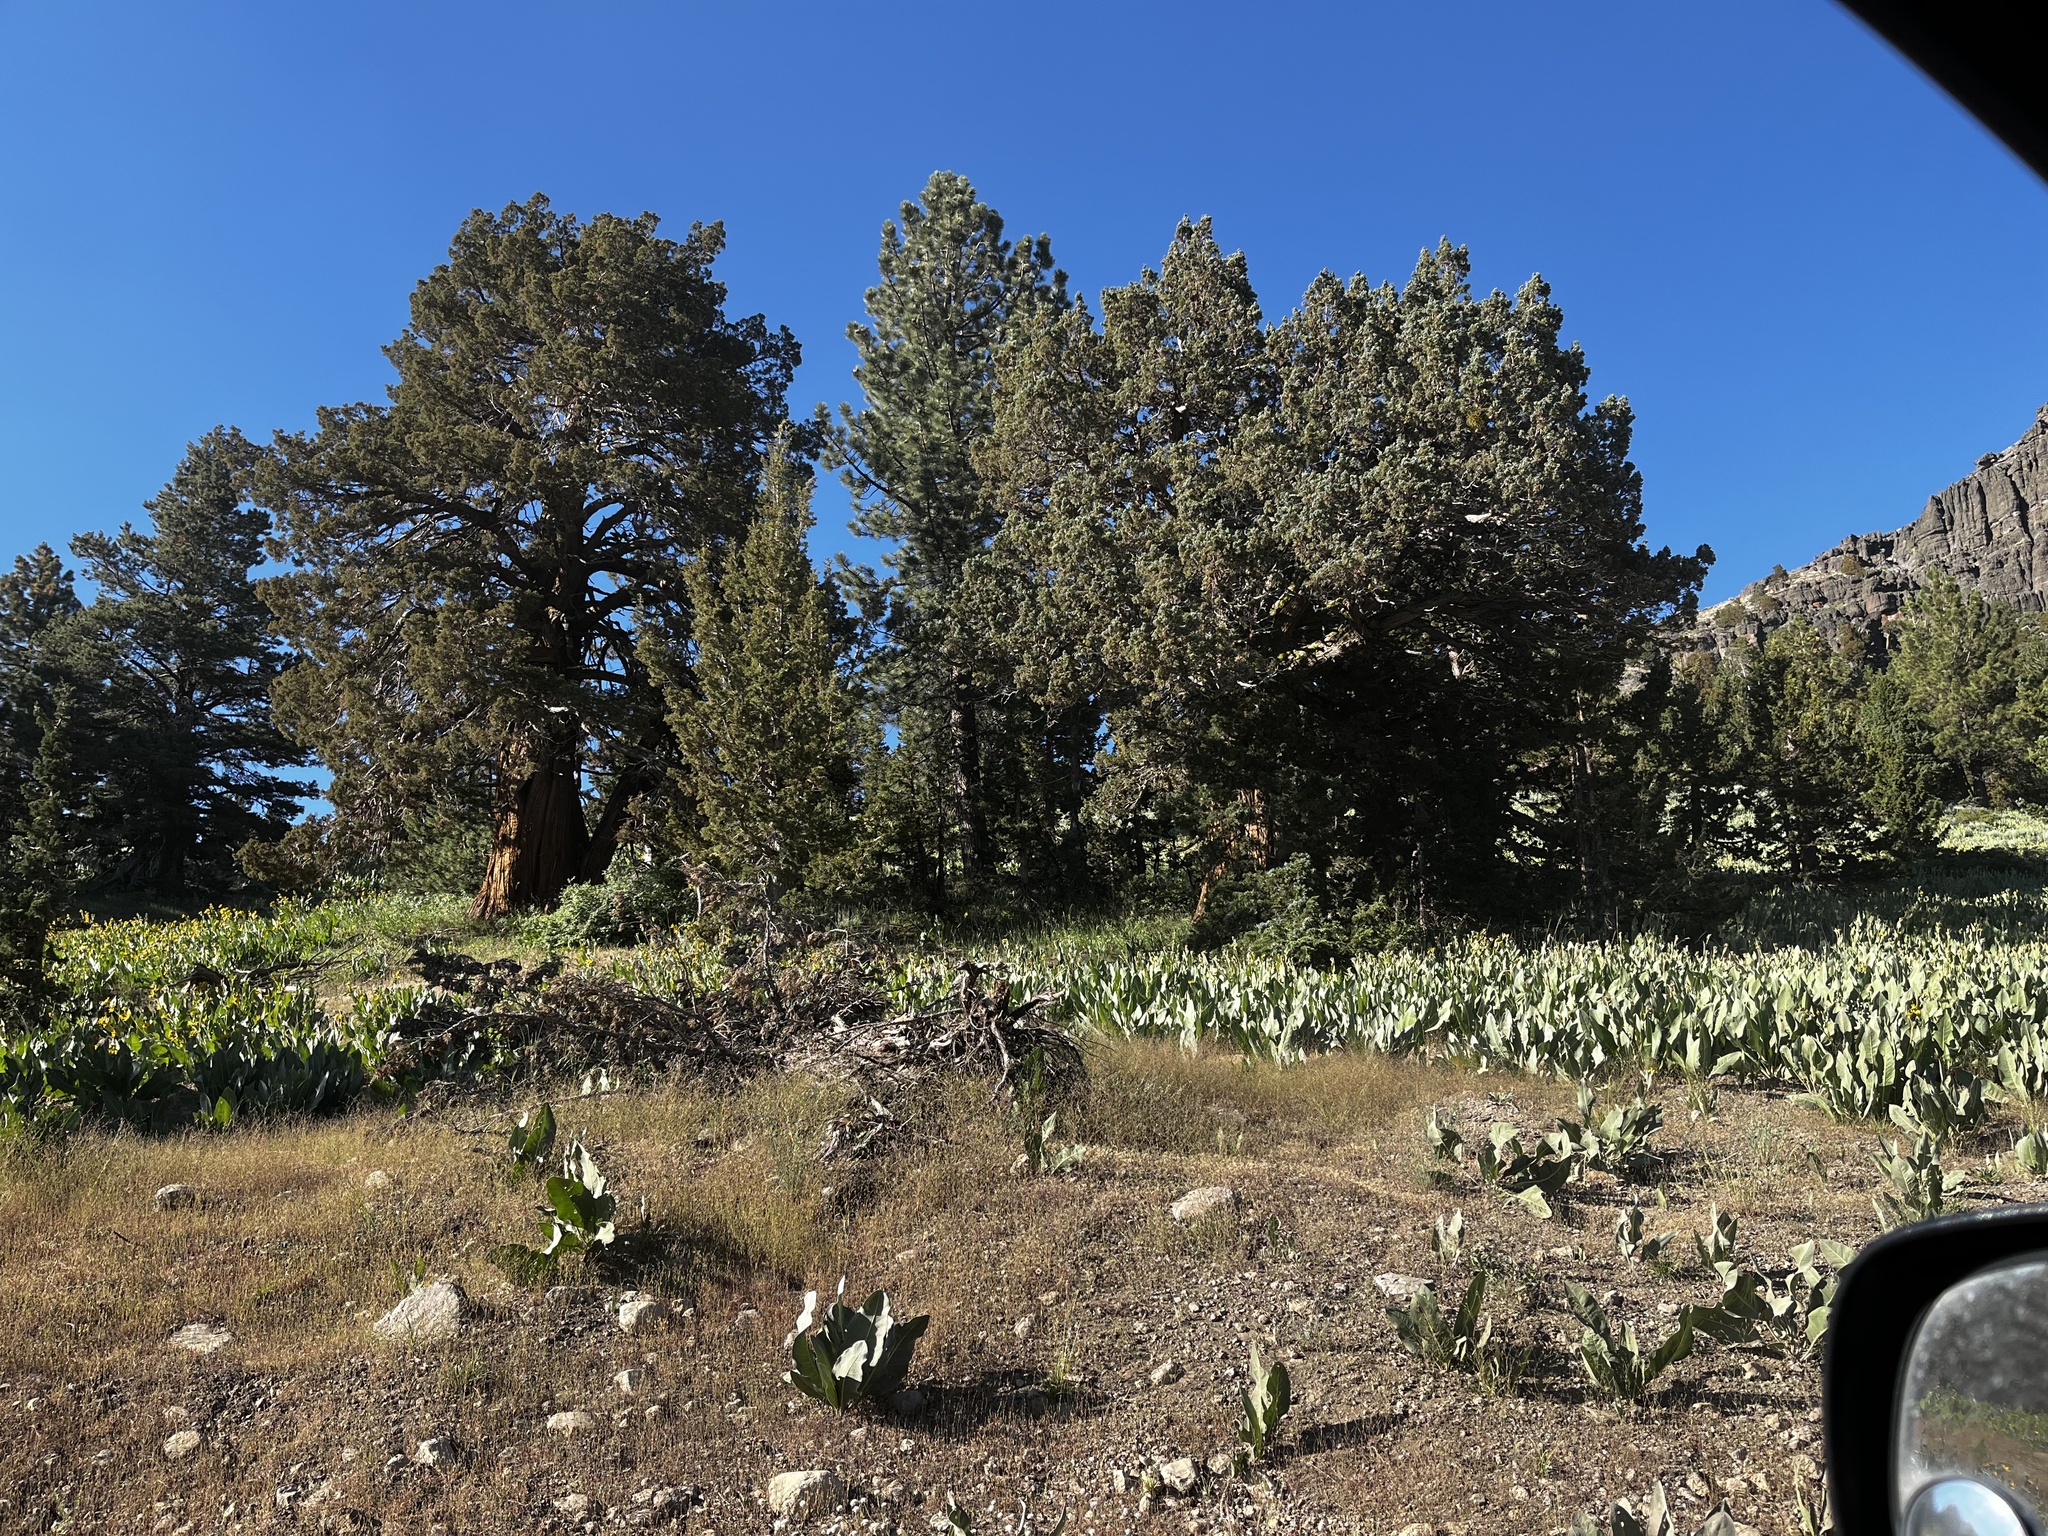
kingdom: Plantae
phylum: Tracheophyta
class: Pinopsida
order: Pinales
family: Cupressaceae
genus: Juniperus
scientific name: Juniperus occidentalis
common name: Western juniper
